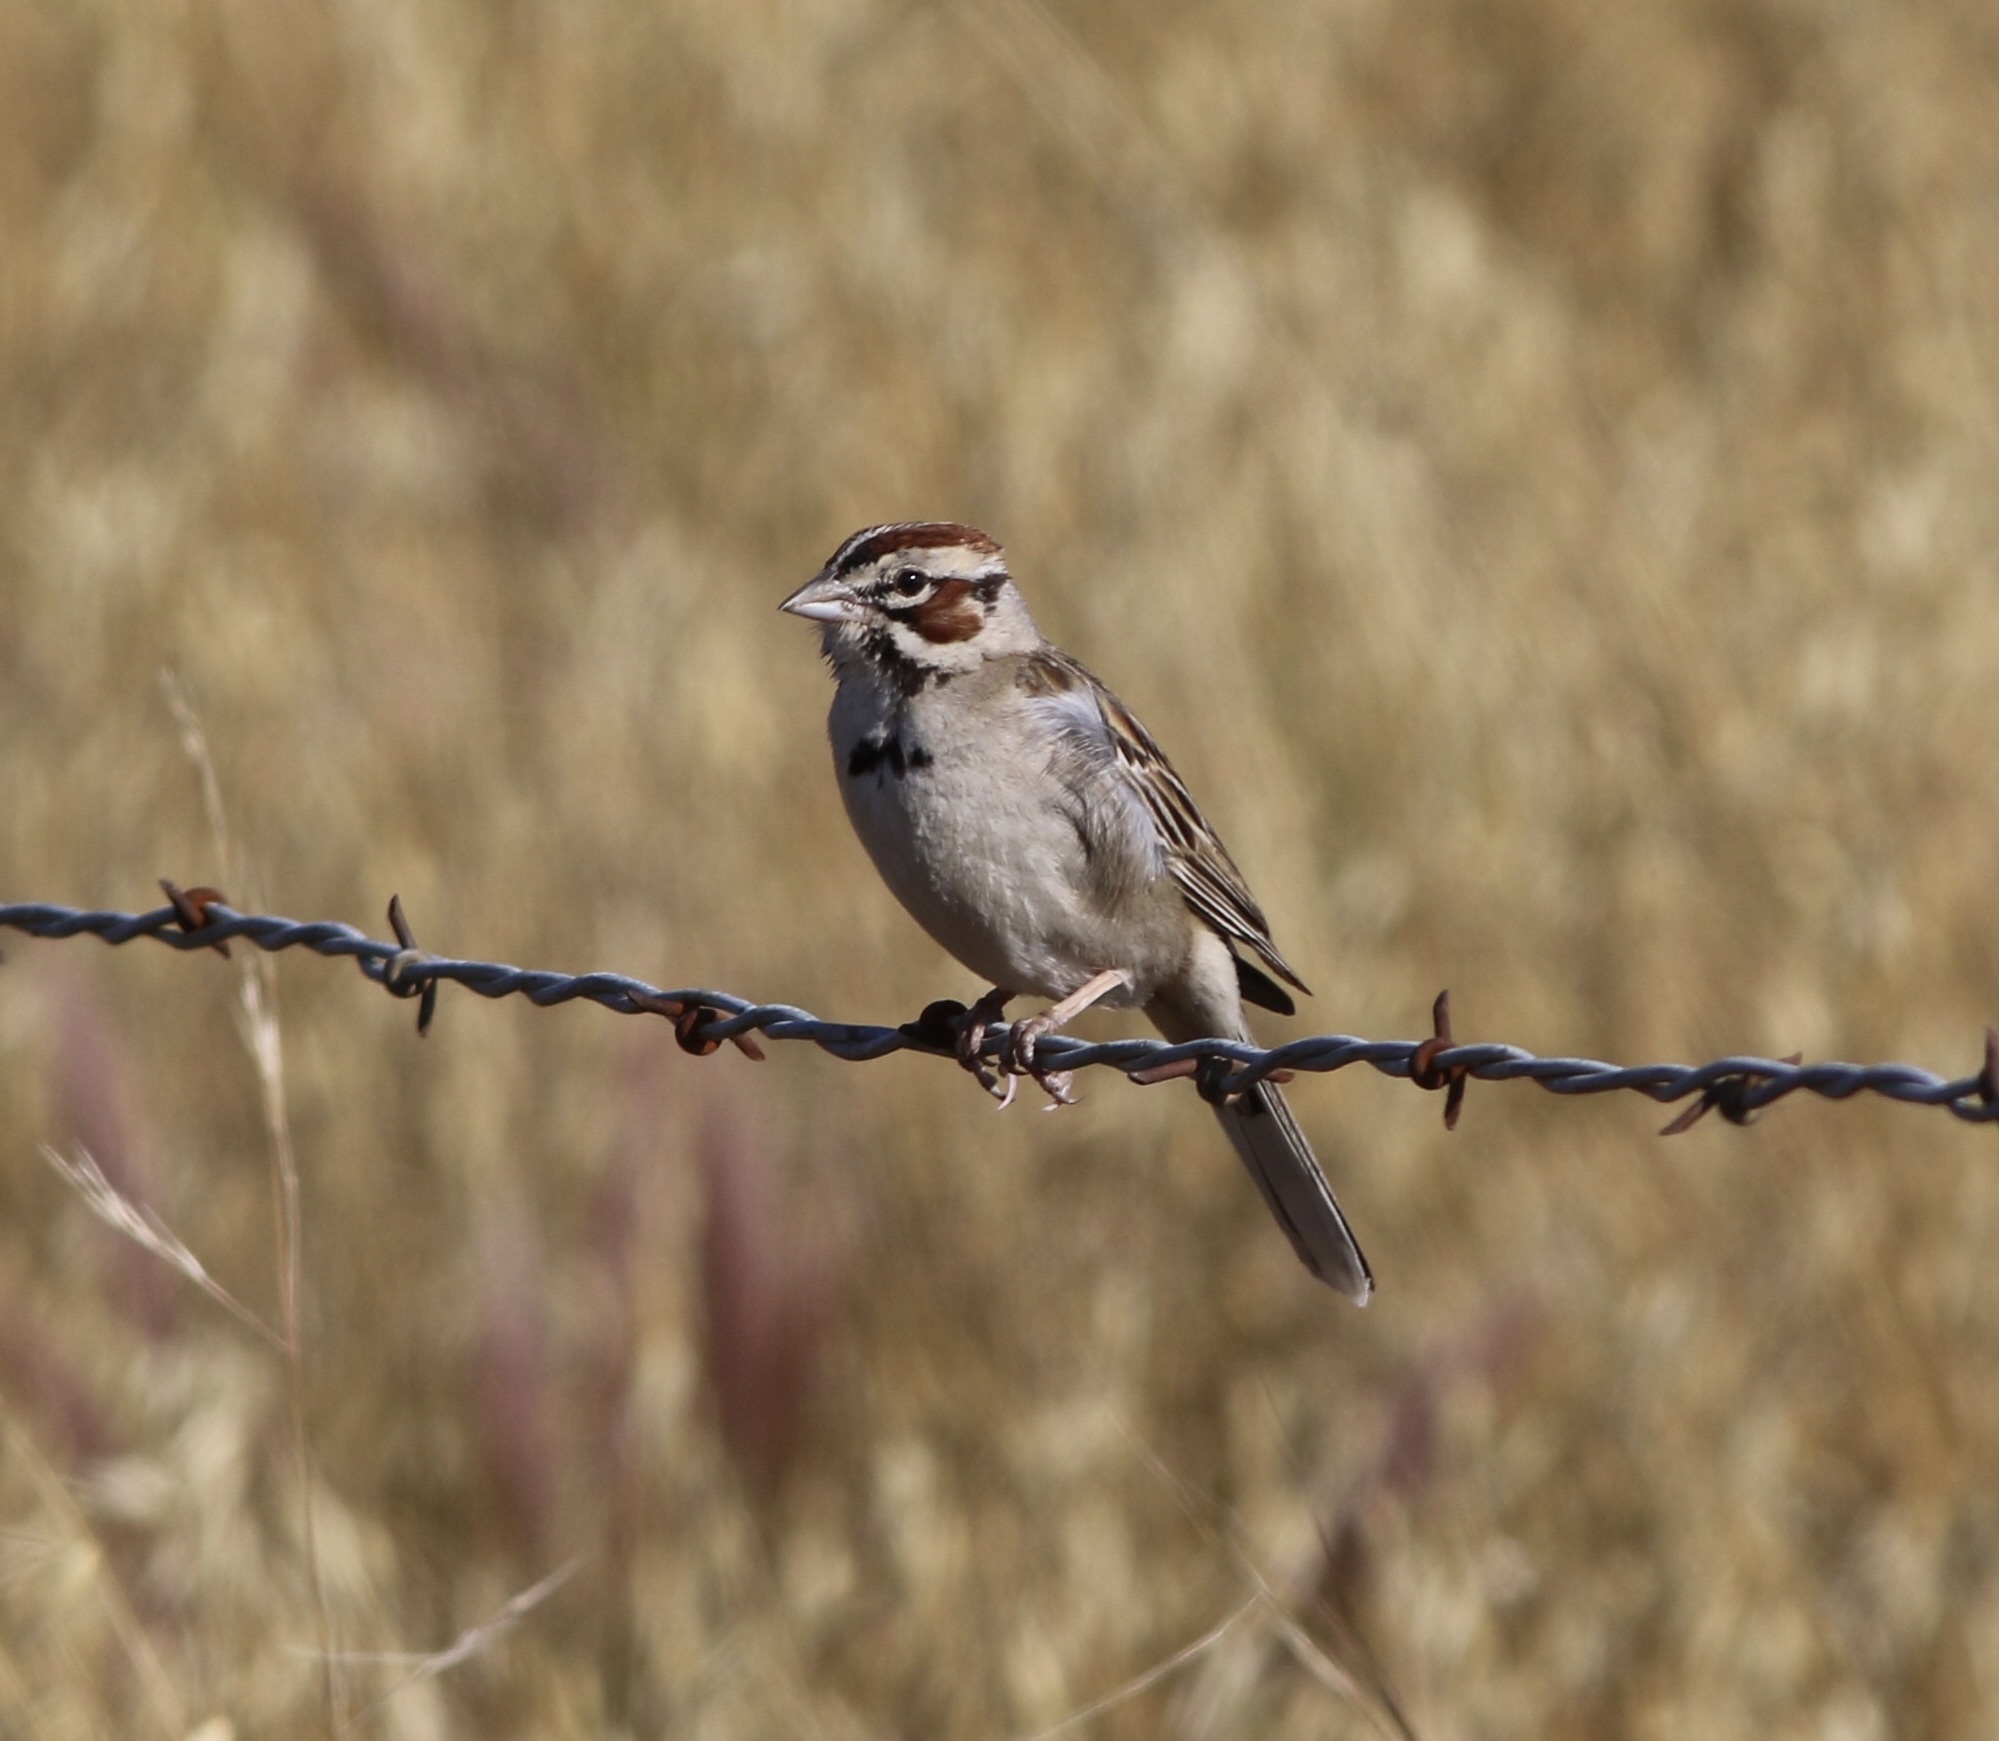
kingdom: Animalia
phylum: Chordata
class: Aves
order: Passeriformes
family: Passerellidae
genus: Chondestes
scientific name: Chondestes grammacus
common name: Lark sparrow
